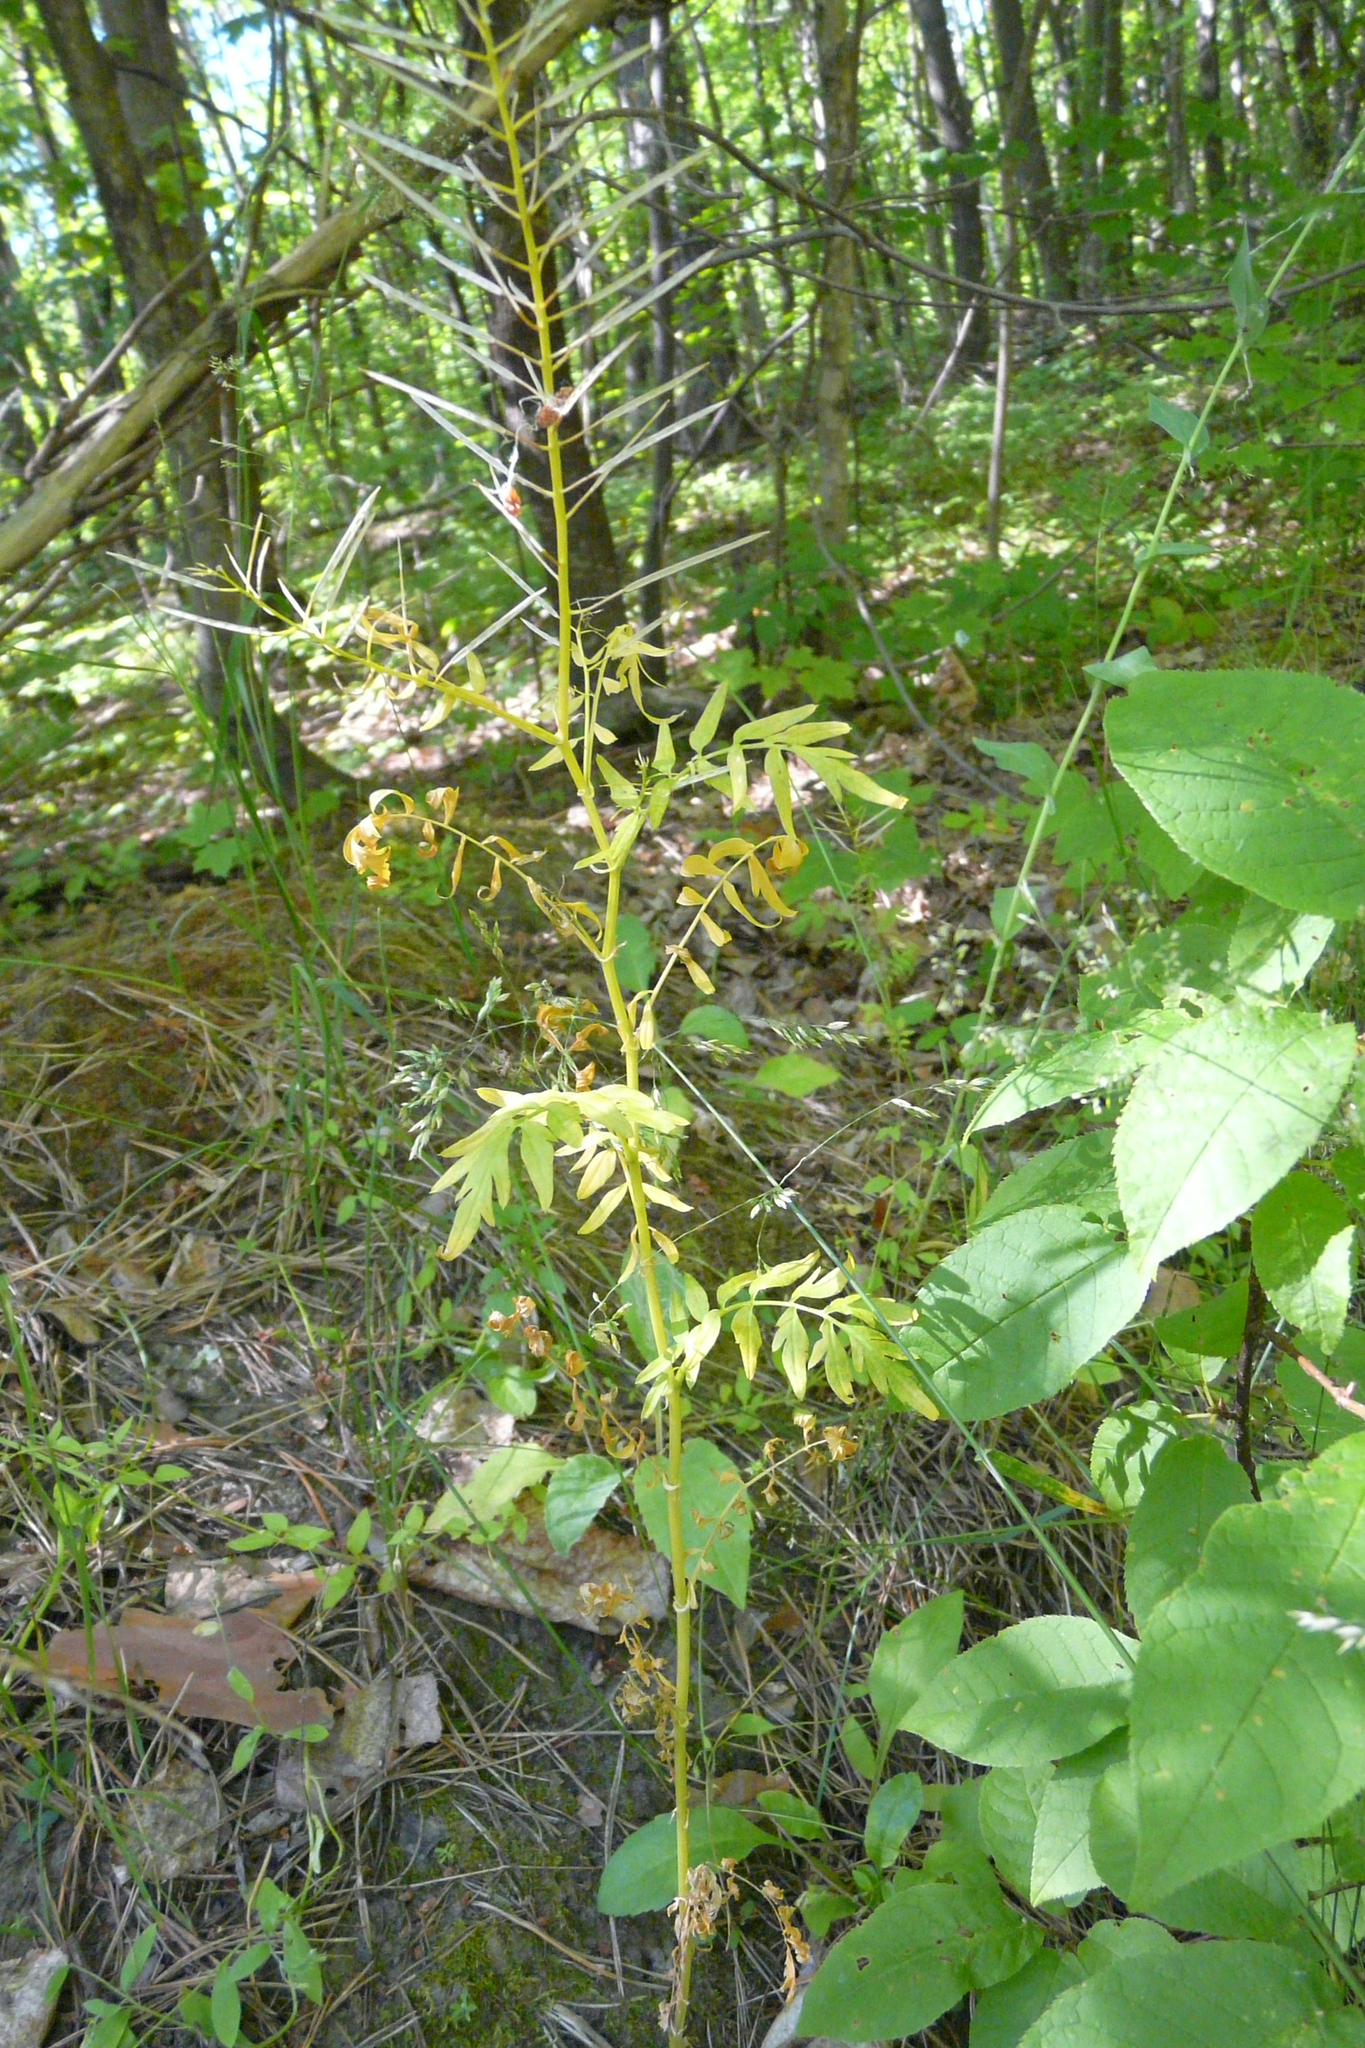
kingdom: Plantae
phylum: Tracheophyta
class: Magnoliopsida
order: Brassicales
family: Brassicaceae
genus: Cardamine
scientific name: Cardamine impatiens
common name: Narrow-leaved bitter-cress
